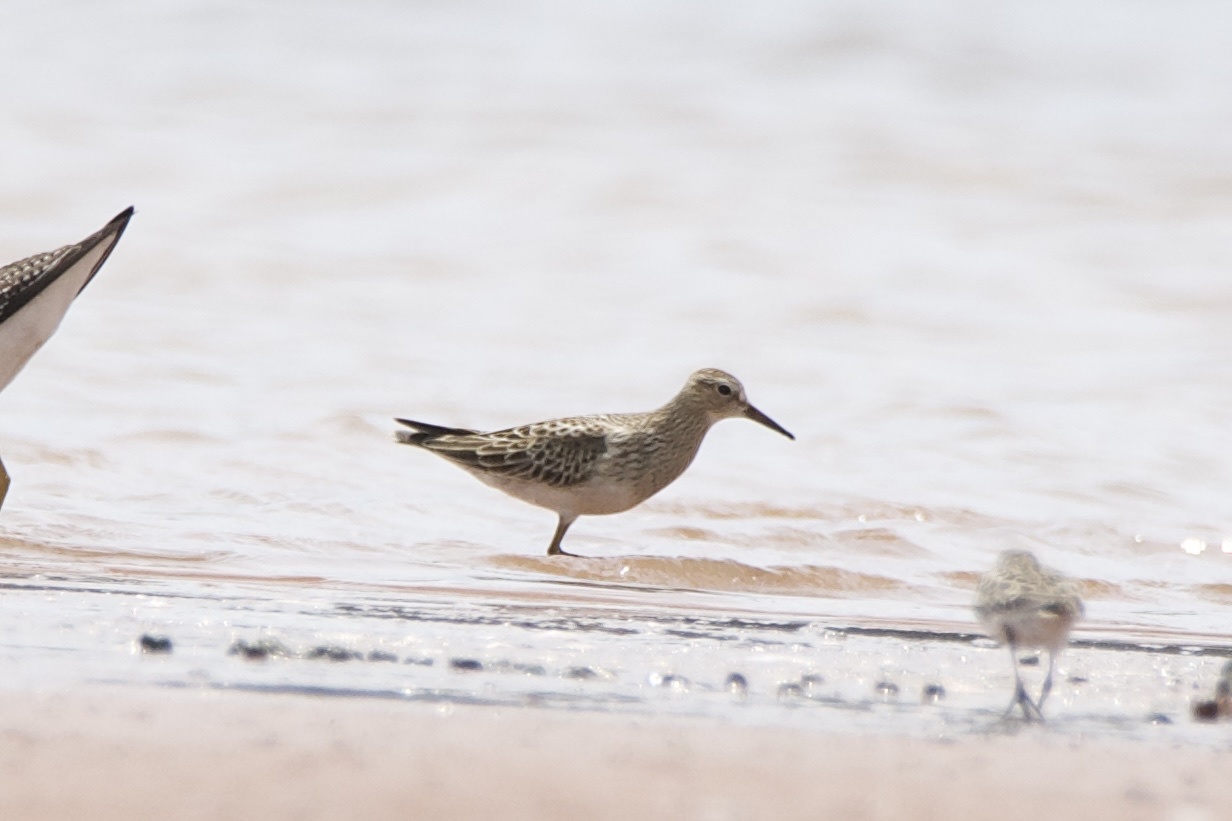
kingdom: Animalia
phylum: Chordata
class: Aves
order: Charadriiformes
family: Scolopacidae
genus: Calidris
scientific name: Calidris melanotos
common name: Pectoral sandpiper
